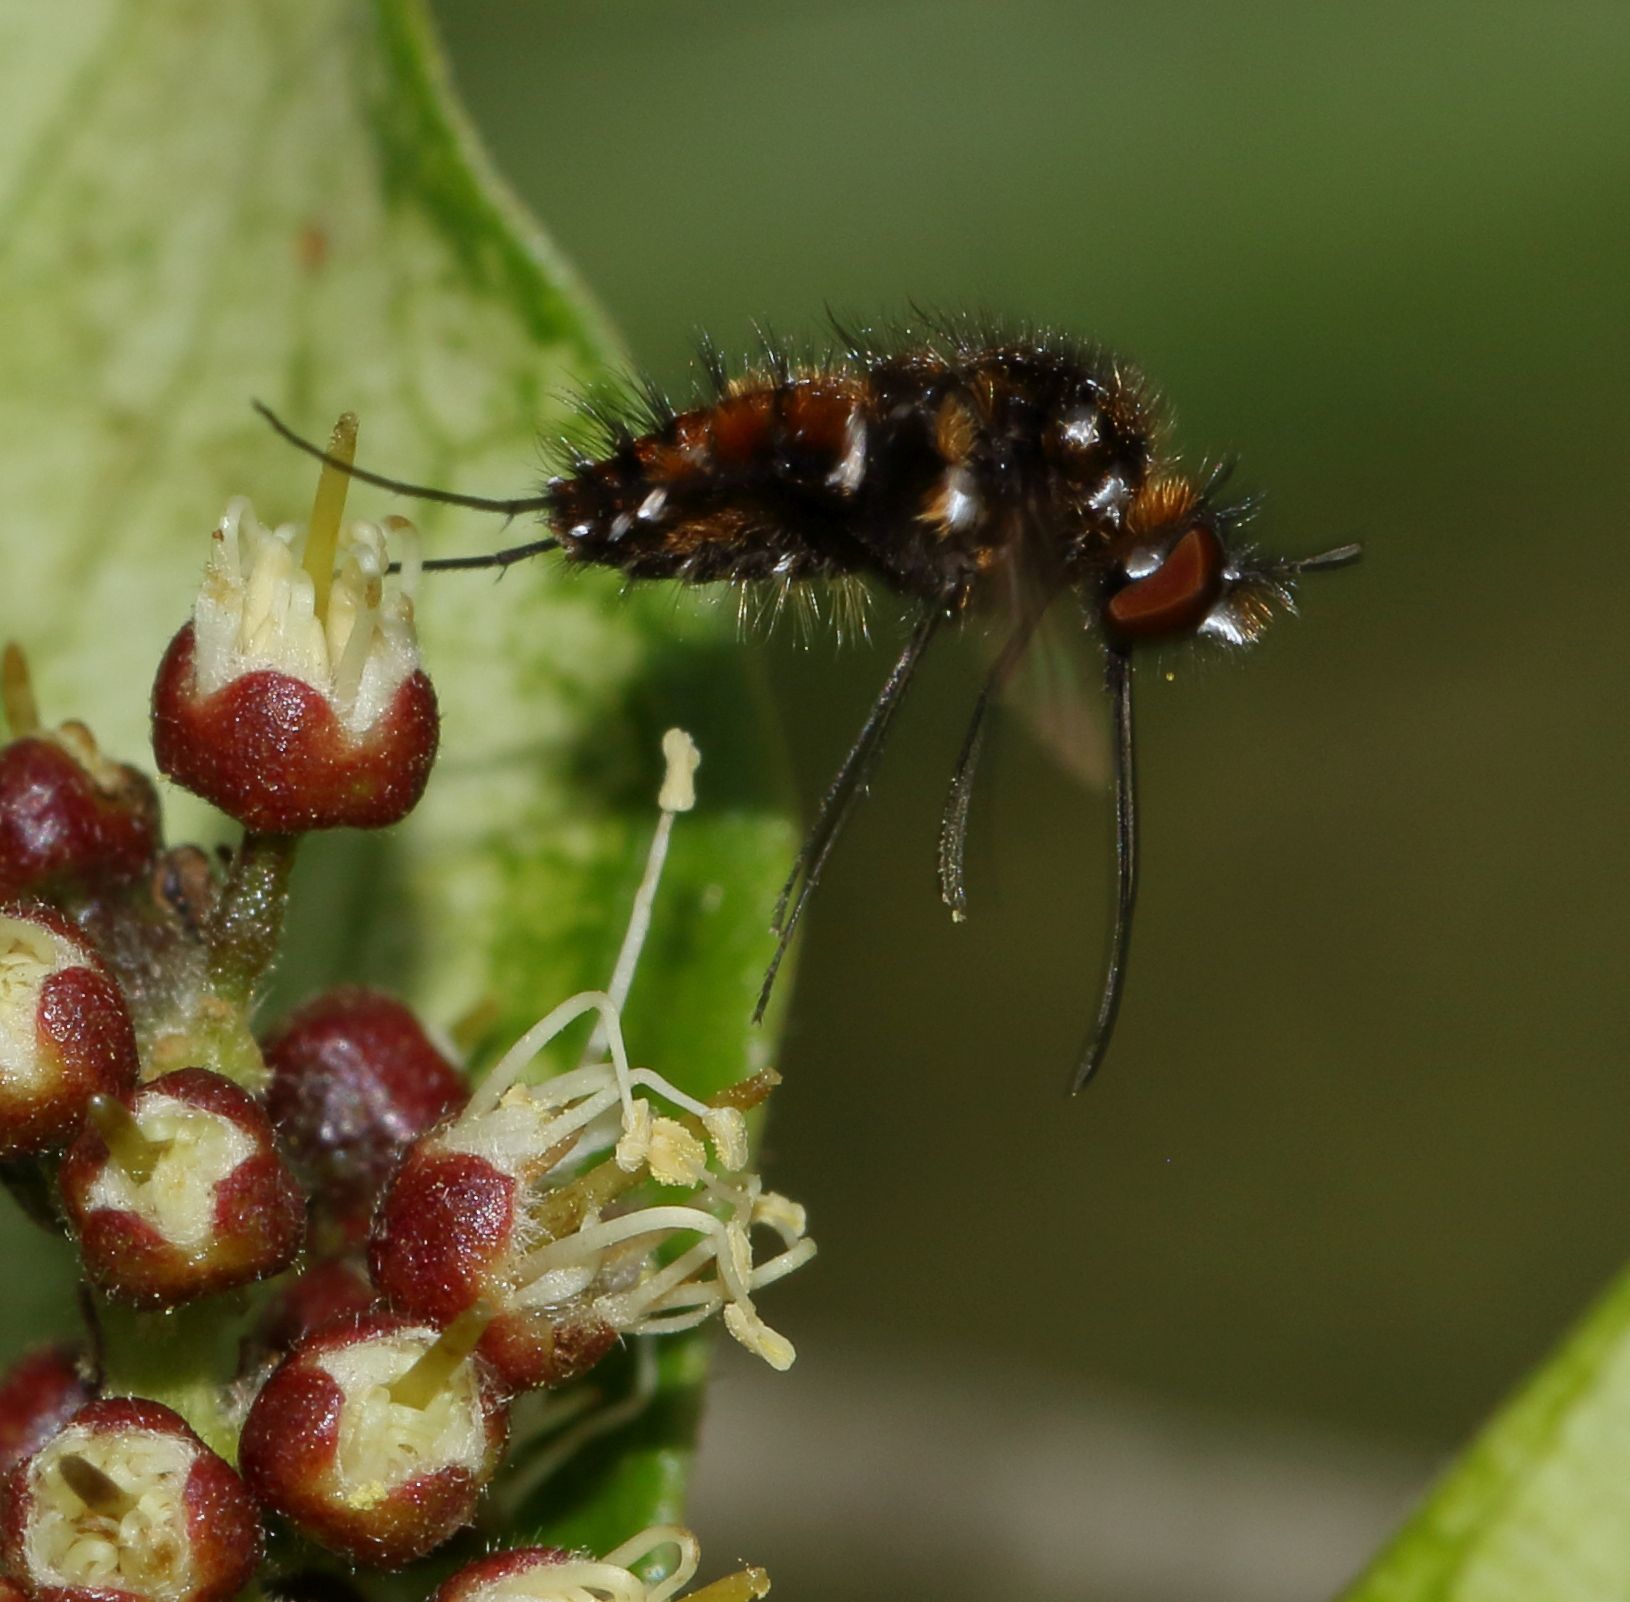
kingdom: Animalia
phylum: Arthropoda
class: Insecta
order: Diptera
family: Bombyliidae
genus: Bombylella
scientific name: Bombylella elegans
